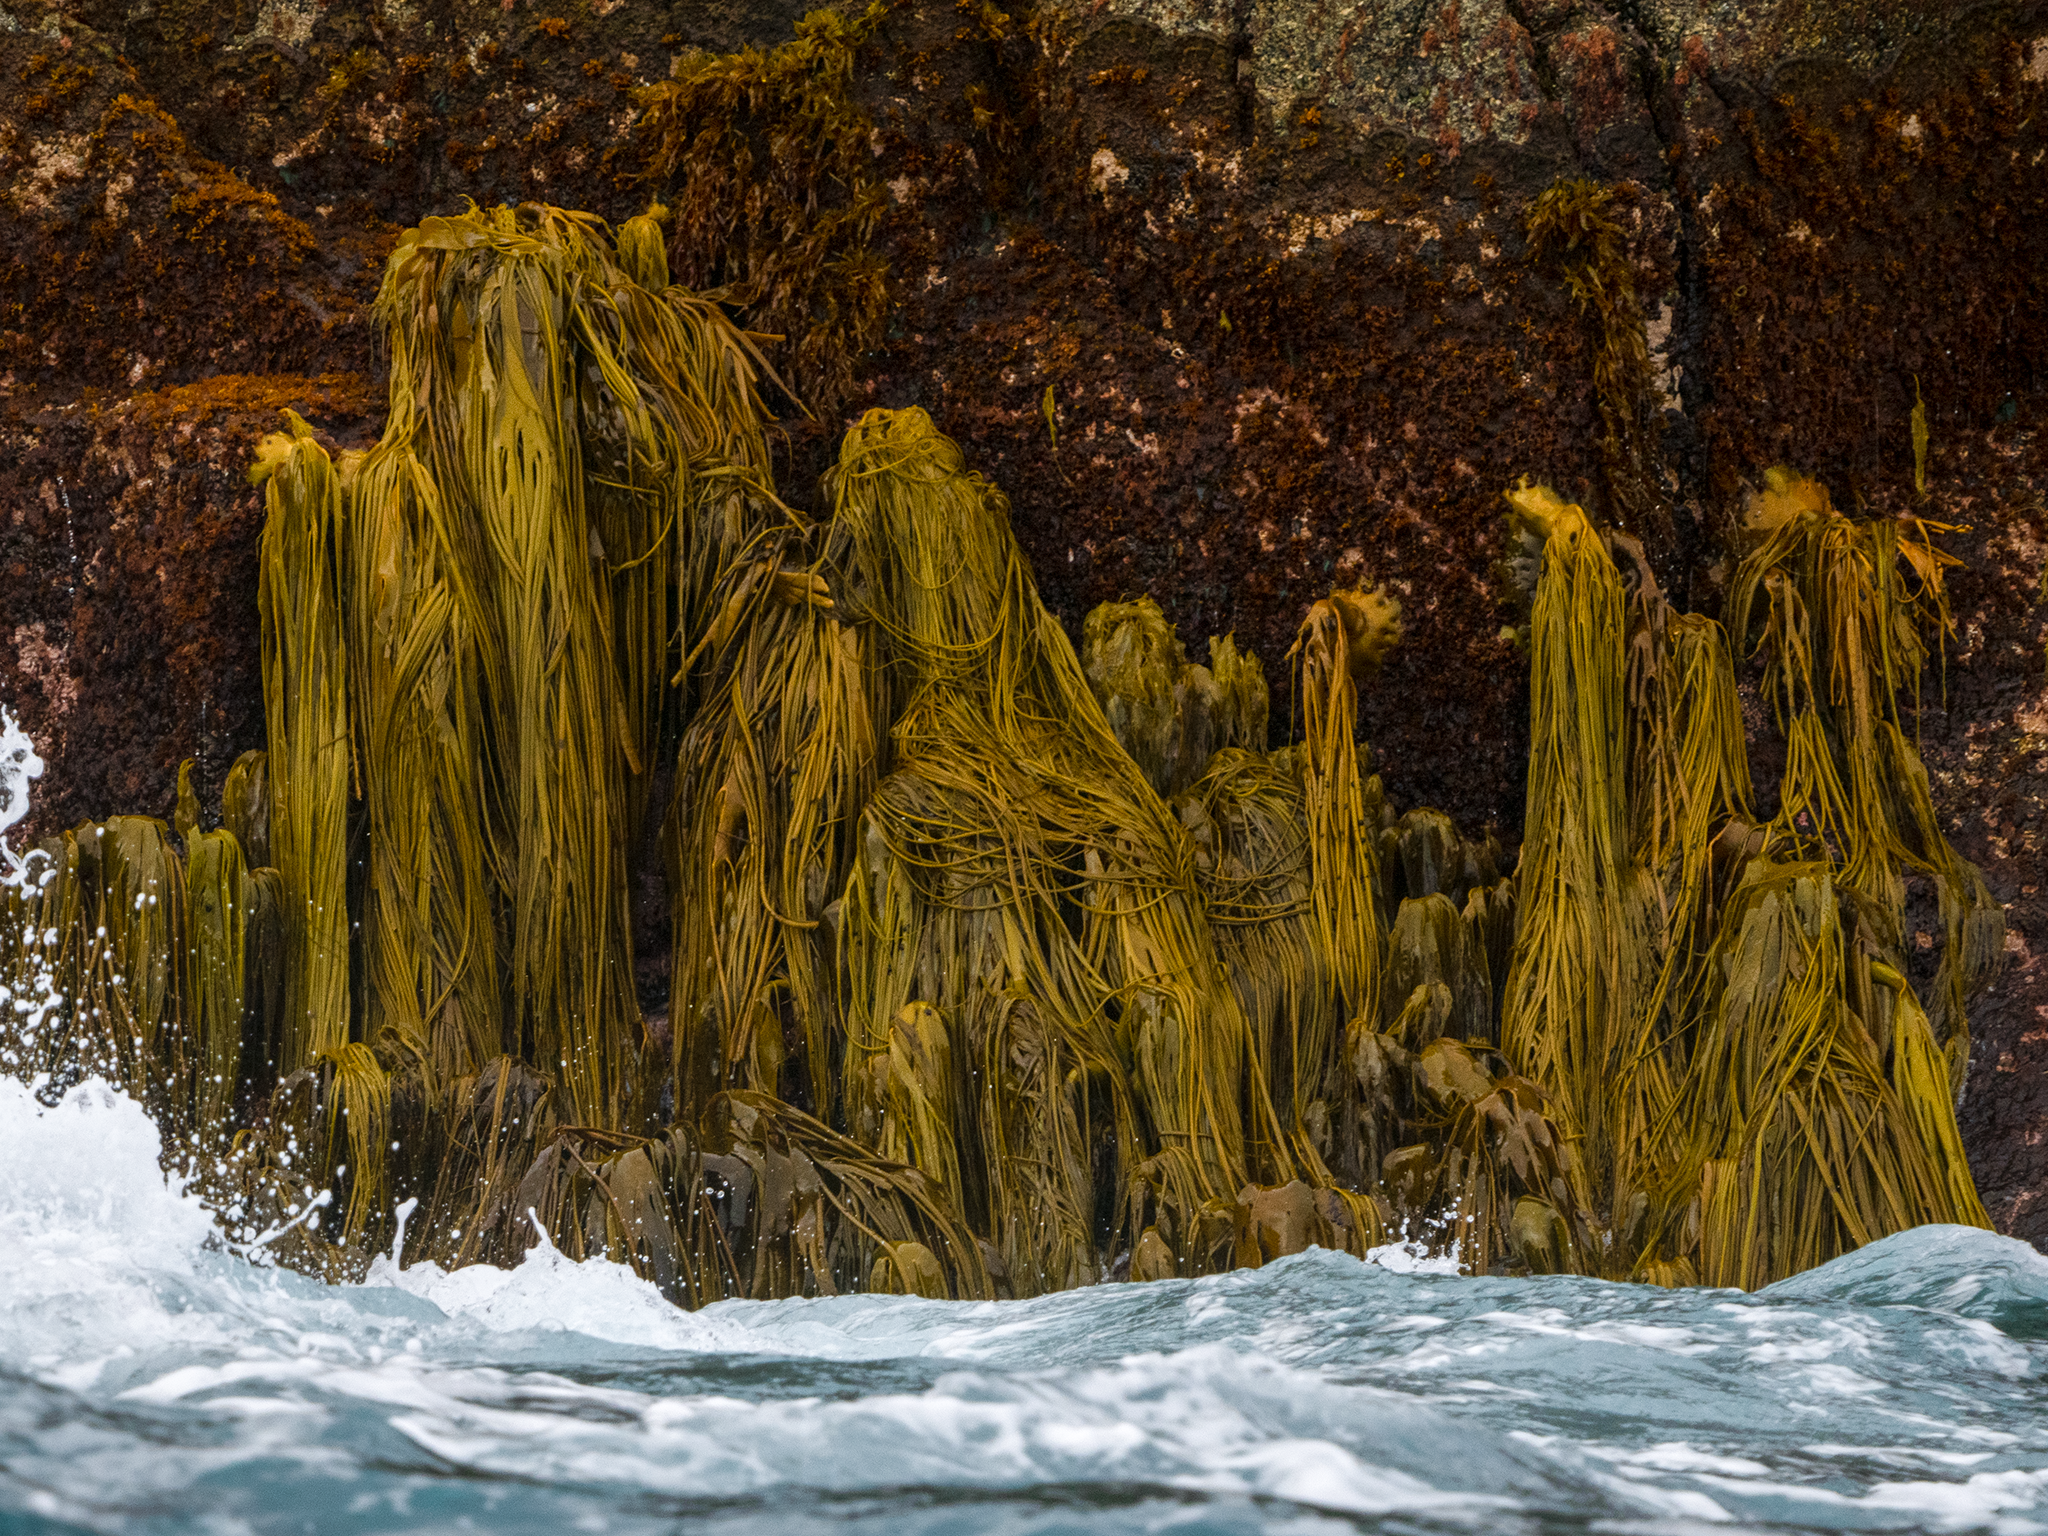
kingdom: Chromista
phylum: Ochrophyta
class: Phaeophyceae
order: Fucales
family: Durvillaeaceae
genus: Durvillaea
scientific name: Durvillaea antarctica
